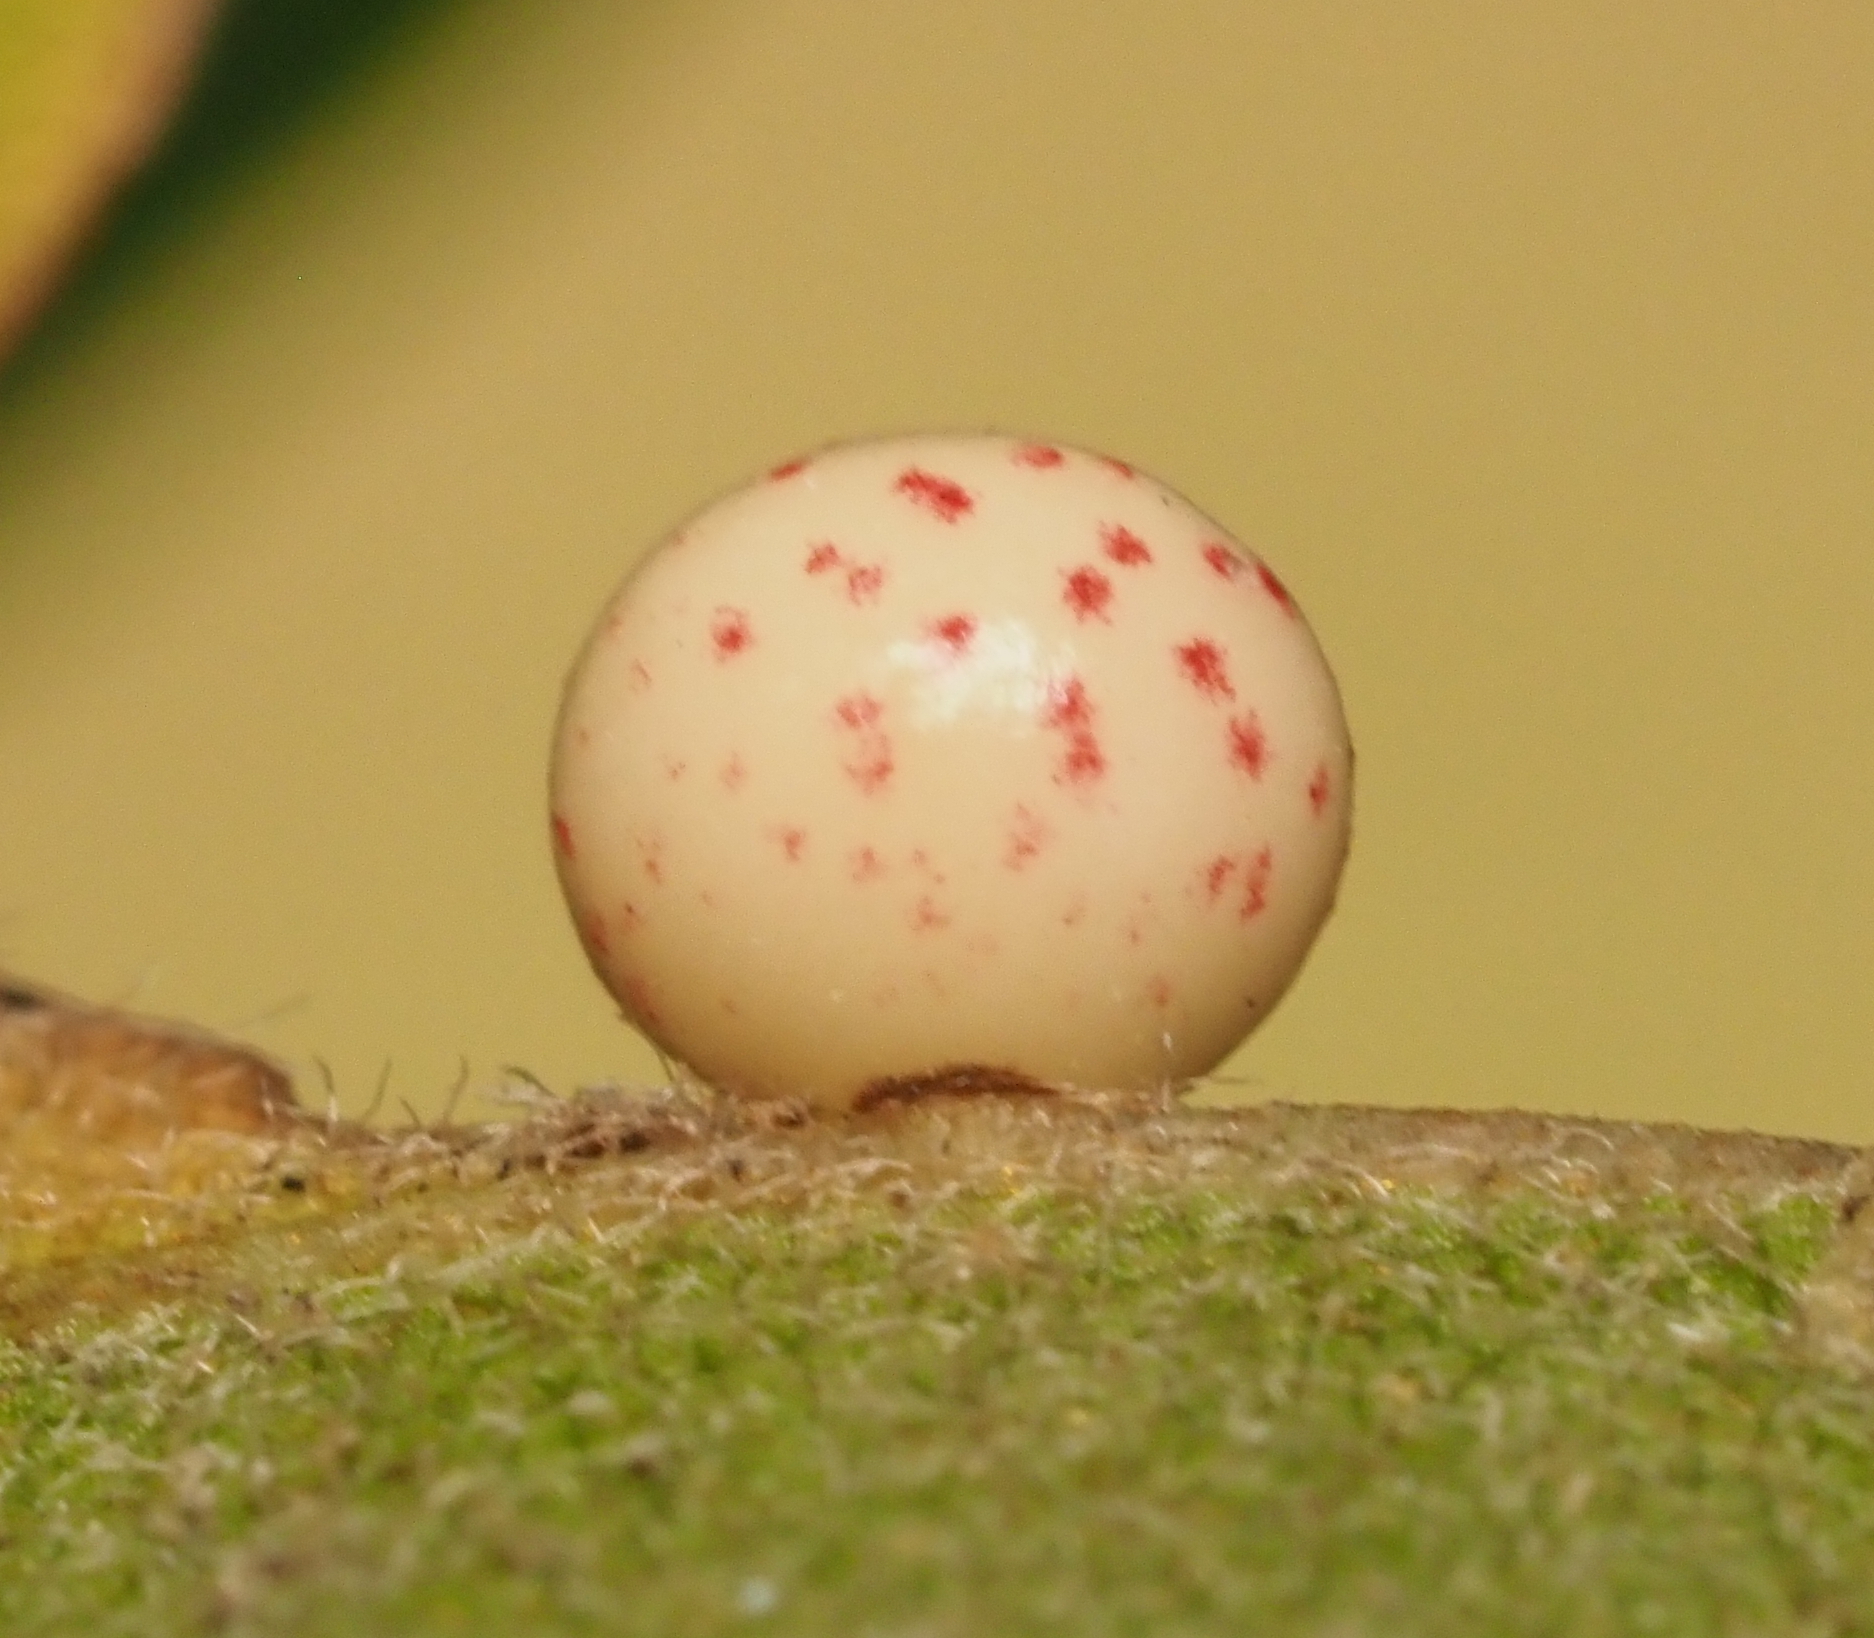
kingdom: Animalia
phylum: Arthropoda
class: Insecta
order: Hymenoptera
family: Cynipidae
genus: Zopheroteras
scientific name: Zopheroteras
